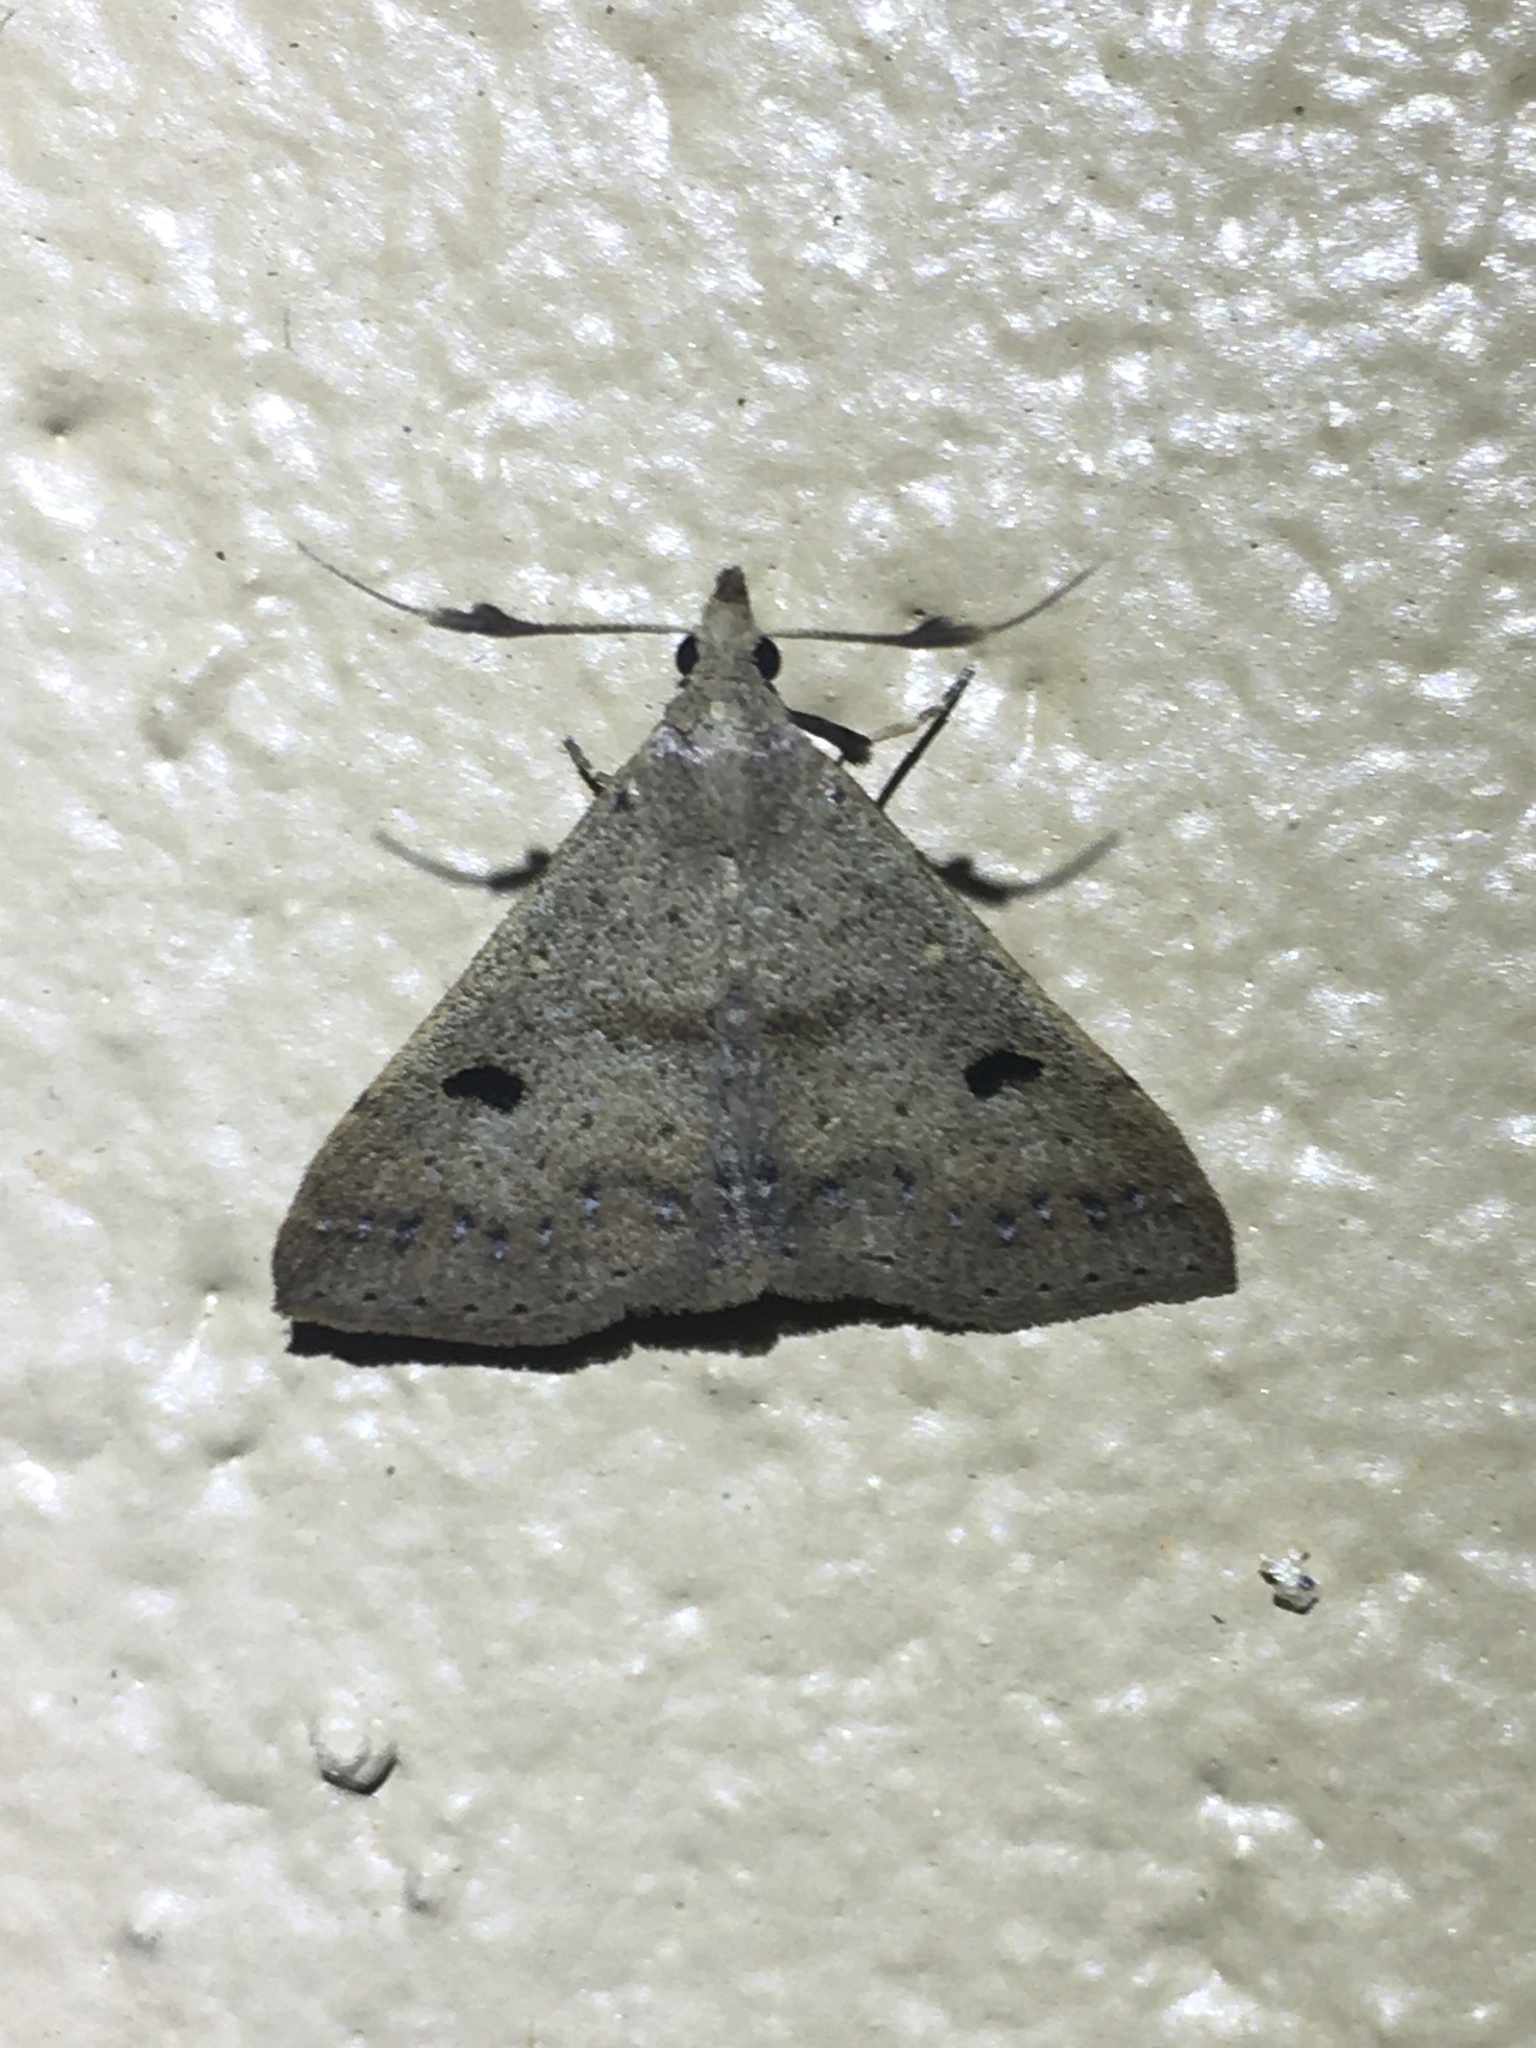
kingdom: Animalia
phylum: Arthropoda
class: Insecta
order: Lepidoptera
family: Erebidae
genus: Renia
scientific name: Renia adspergillus
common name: Speckled renia moth
